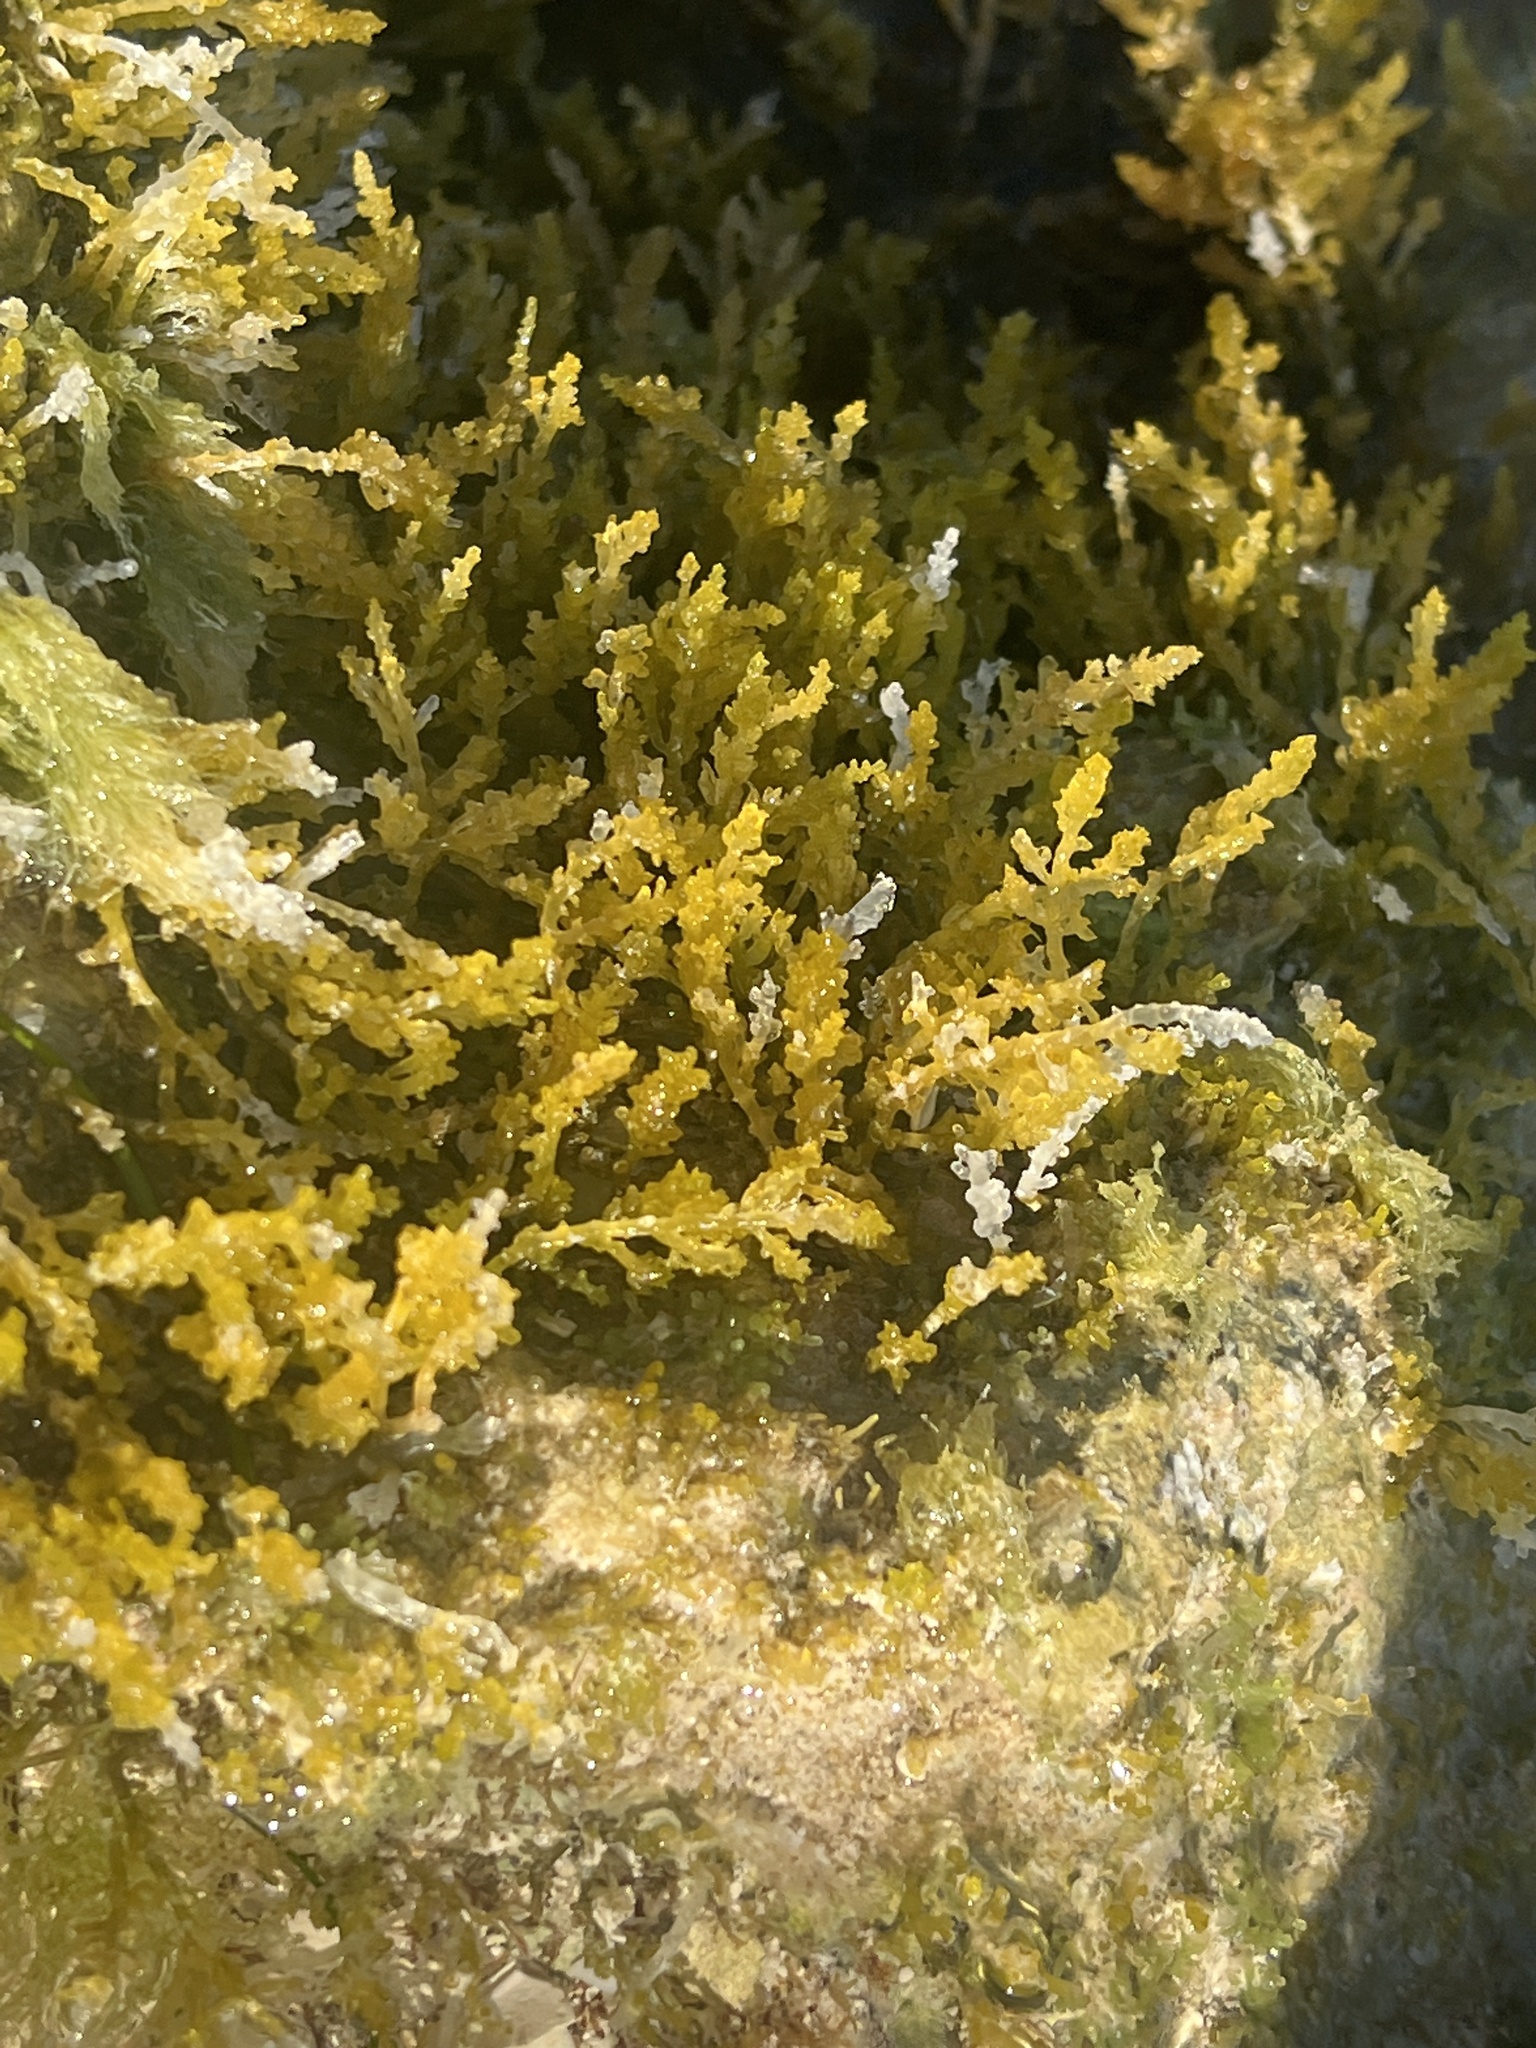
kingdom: Plantae
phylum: Rhodophyta
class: Florideophyceae
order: Ceramiales
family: Rhodomelaceae
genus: Acanthophora
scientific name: Acanthophora spicifera
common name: Red algae
